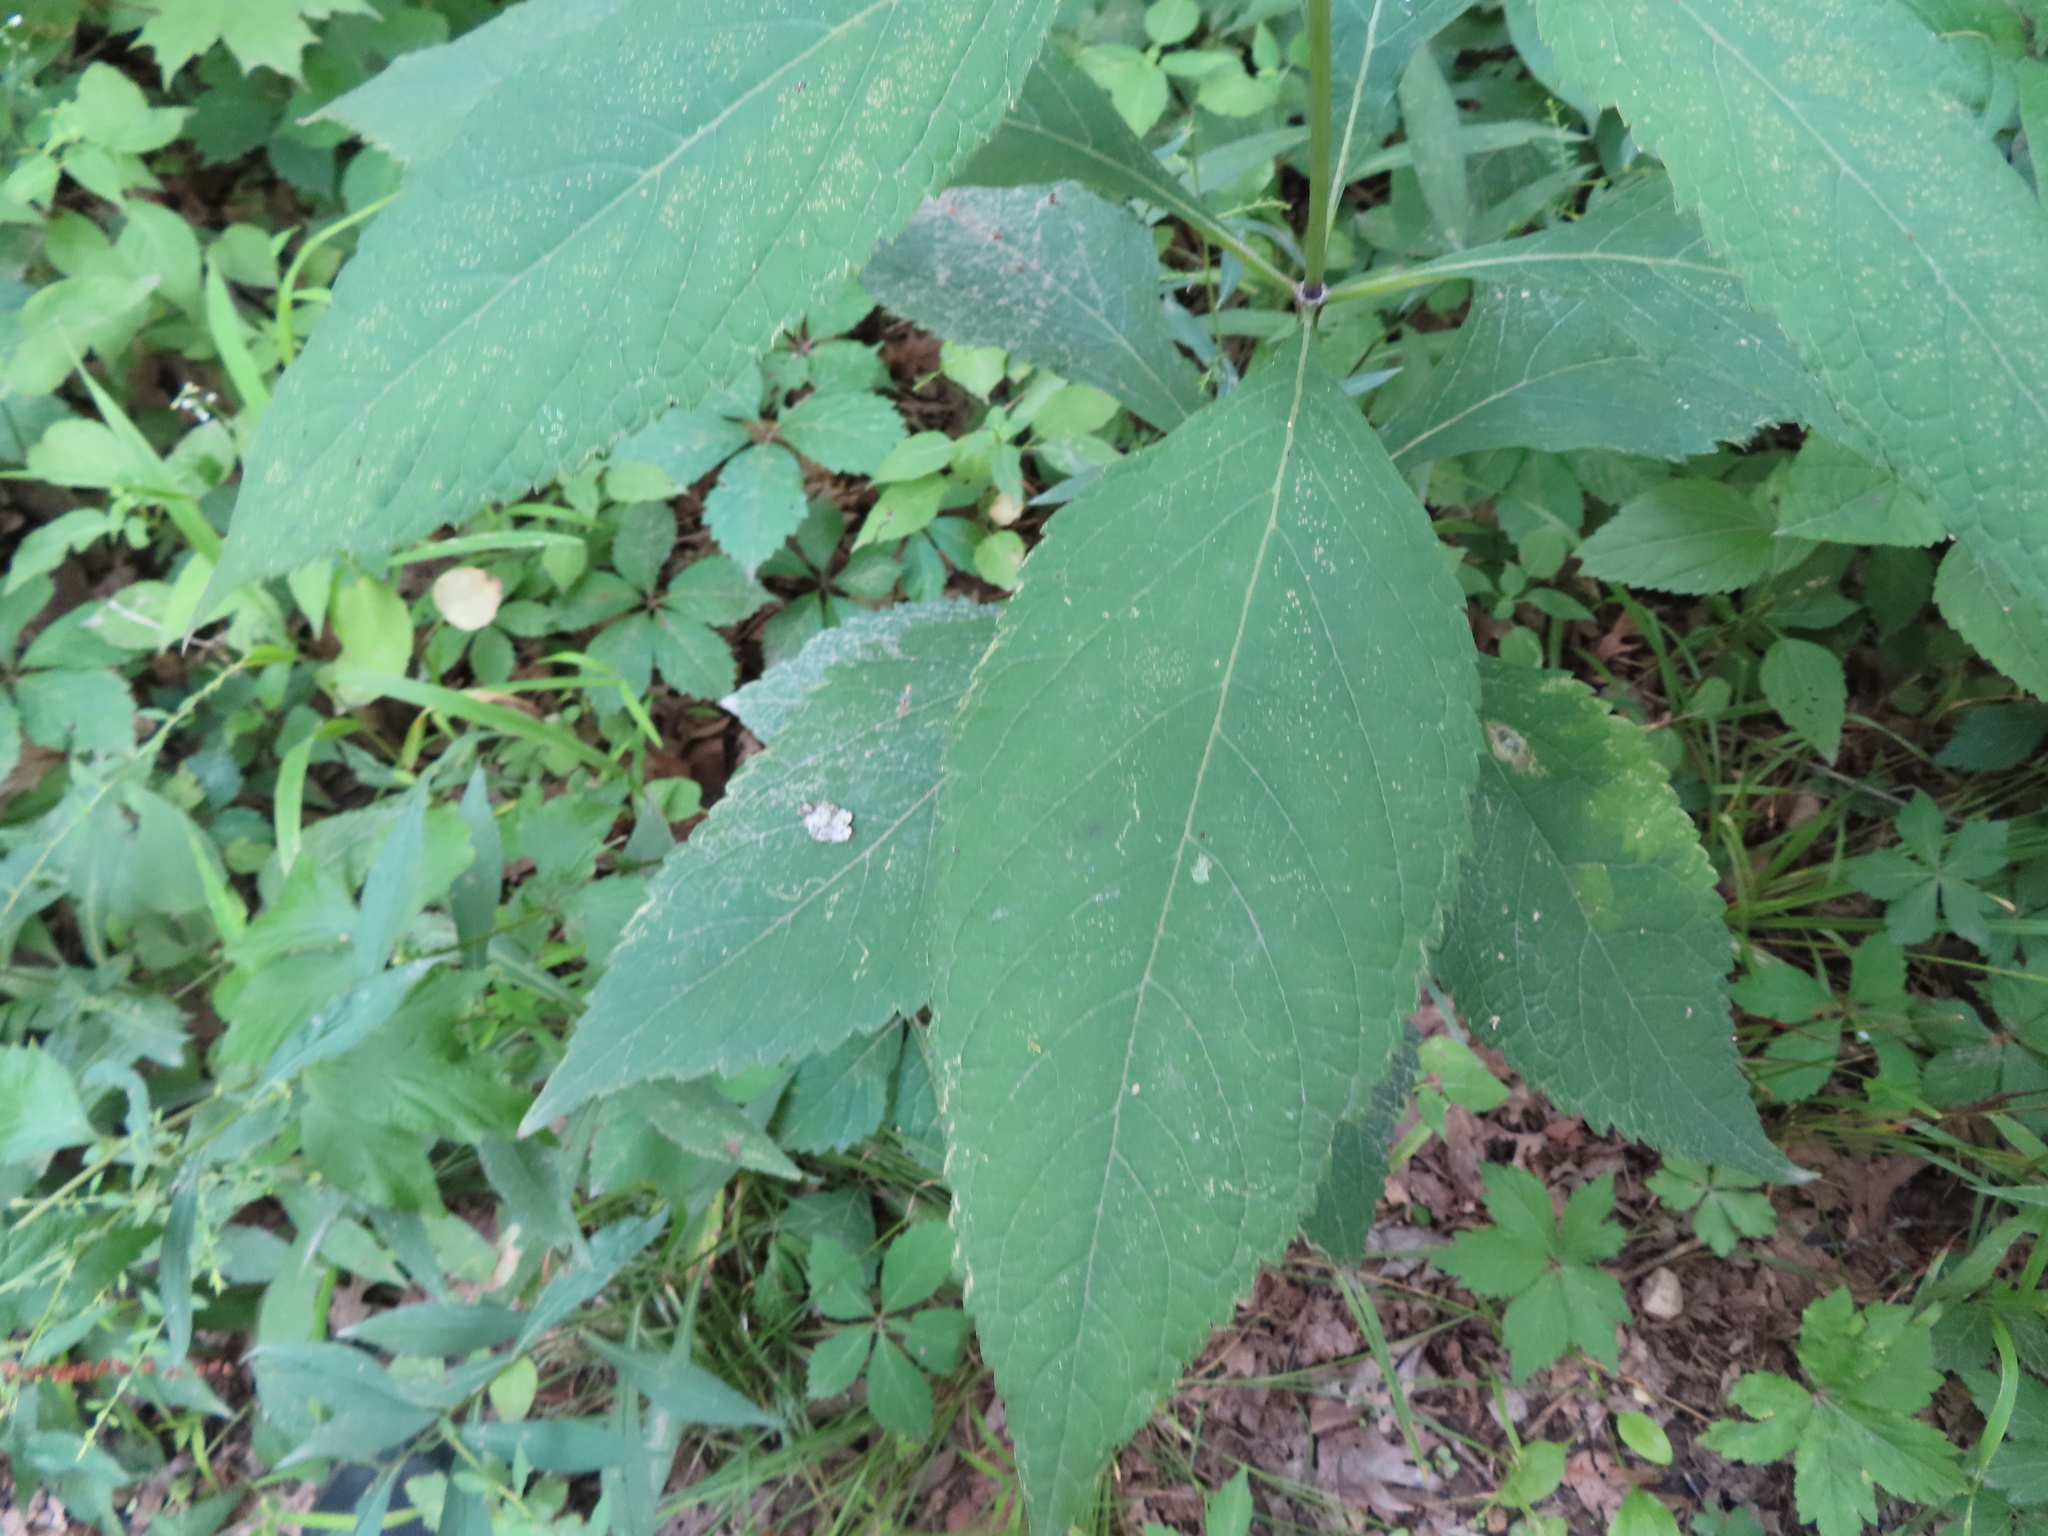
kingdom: Plantae
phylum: Tracheophyta
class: Magnoliopsida
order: Asterales
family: Asteraceae
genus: Eutrochium
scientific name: Eutrochium purpureum
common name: Gravelroot
